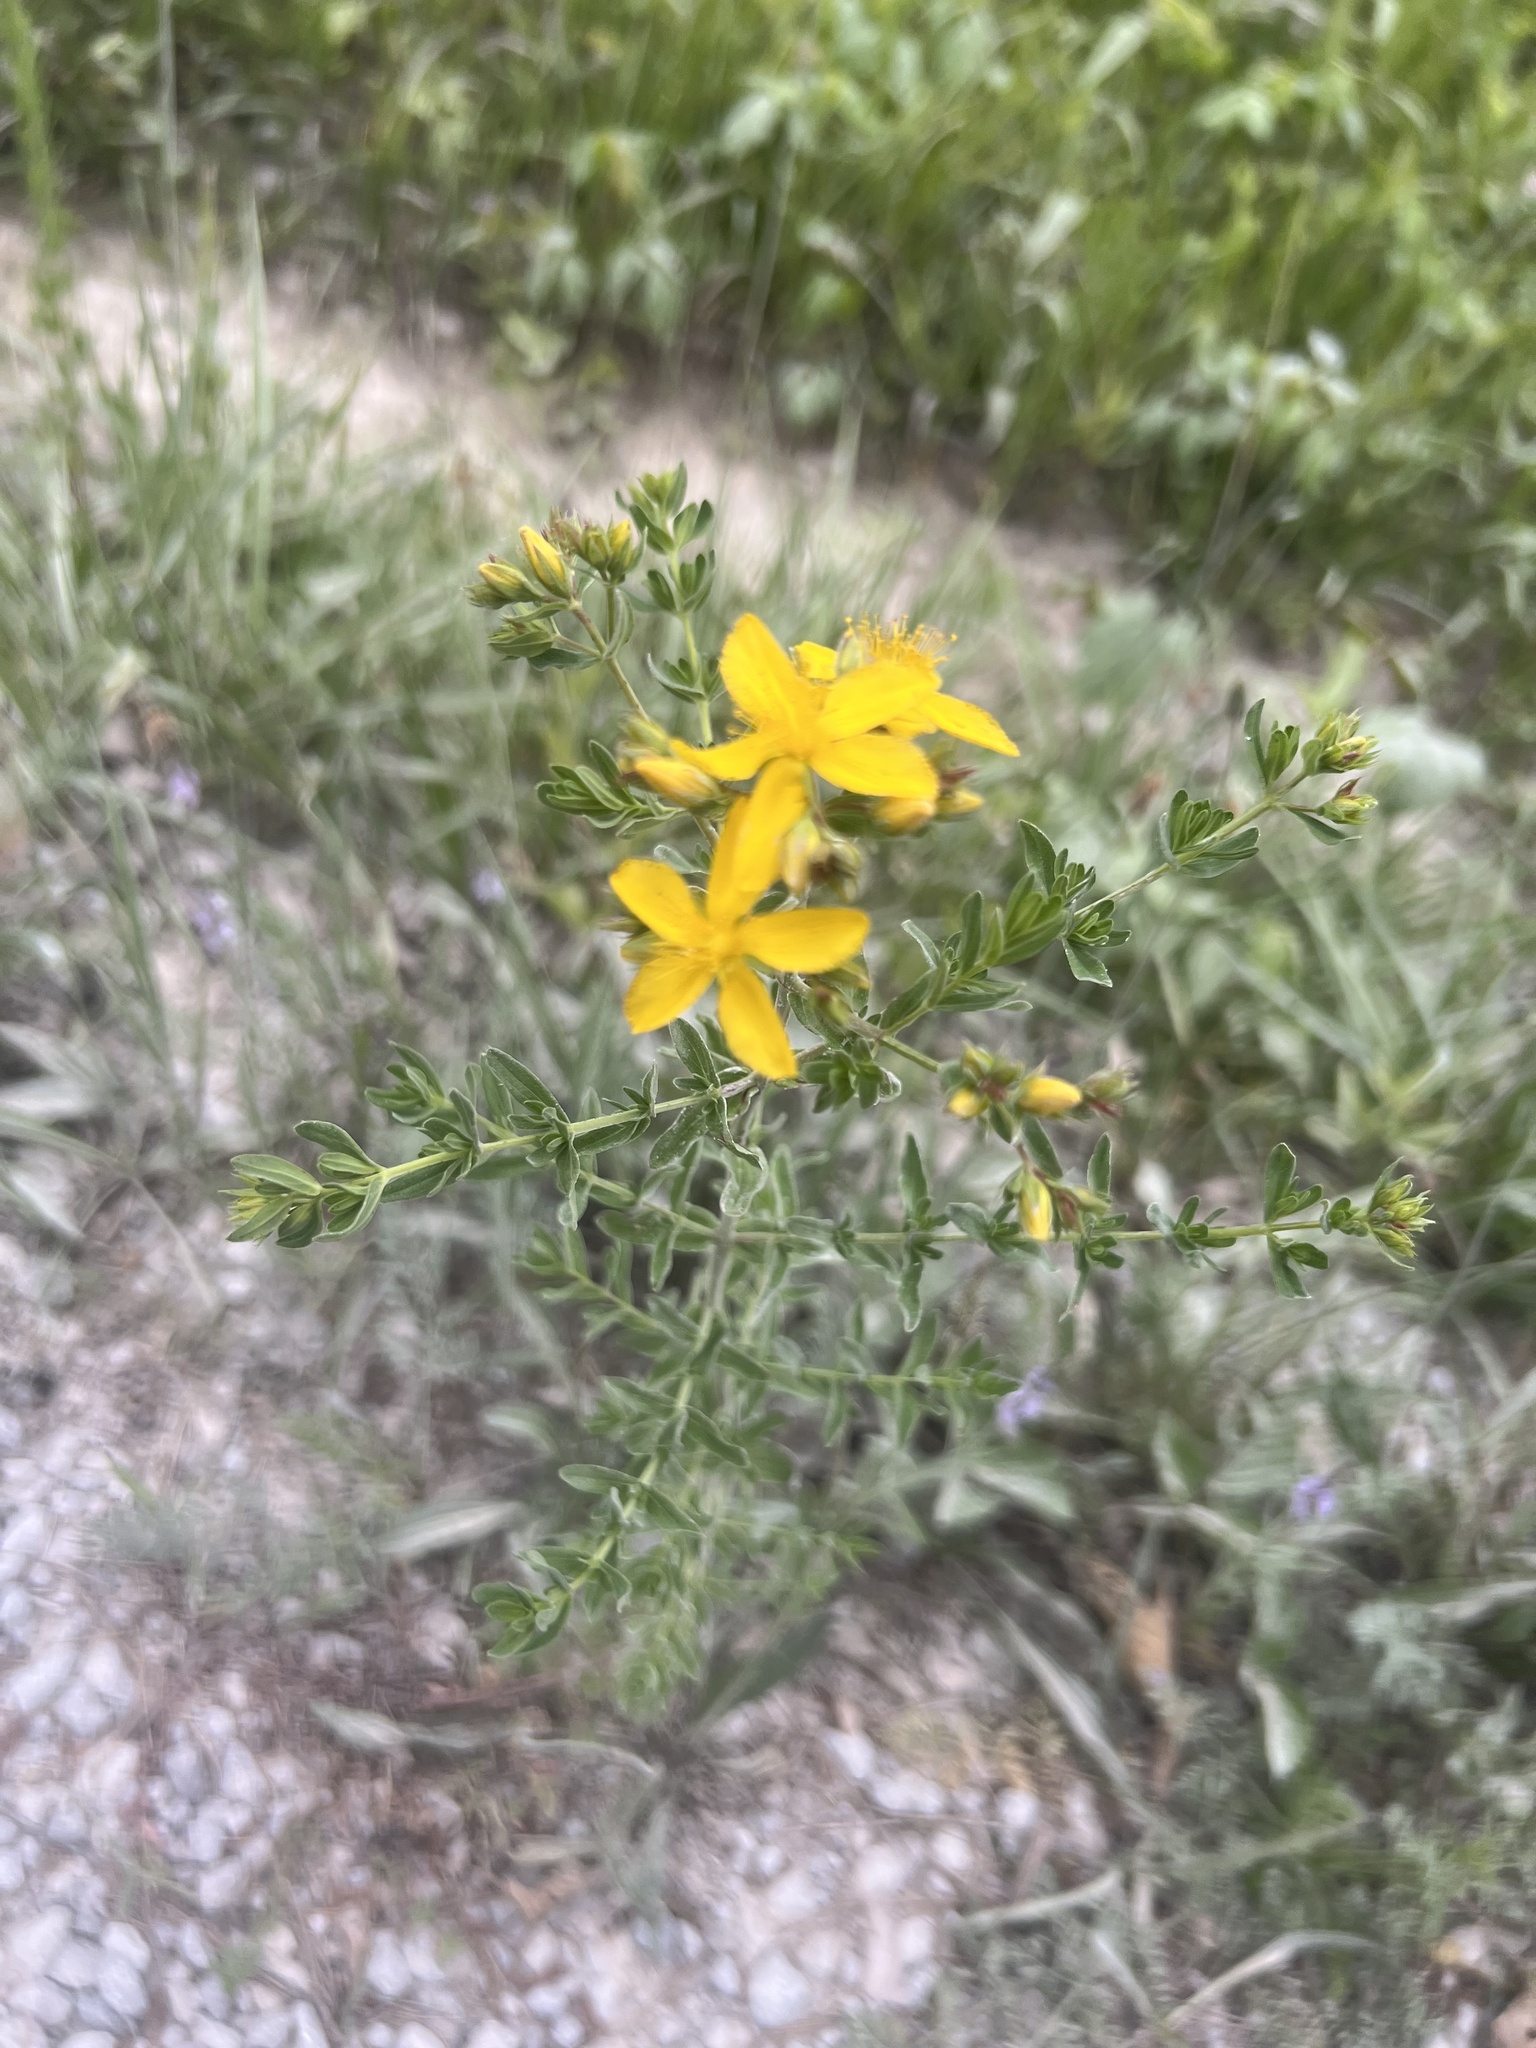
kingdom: Plantae
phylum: Tracheophyta
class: Magnoliopsida
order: Malpighiales
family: Hypericaceae
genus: Hypericum
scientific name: Hypericum perforatum
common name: Common st. johnswort
